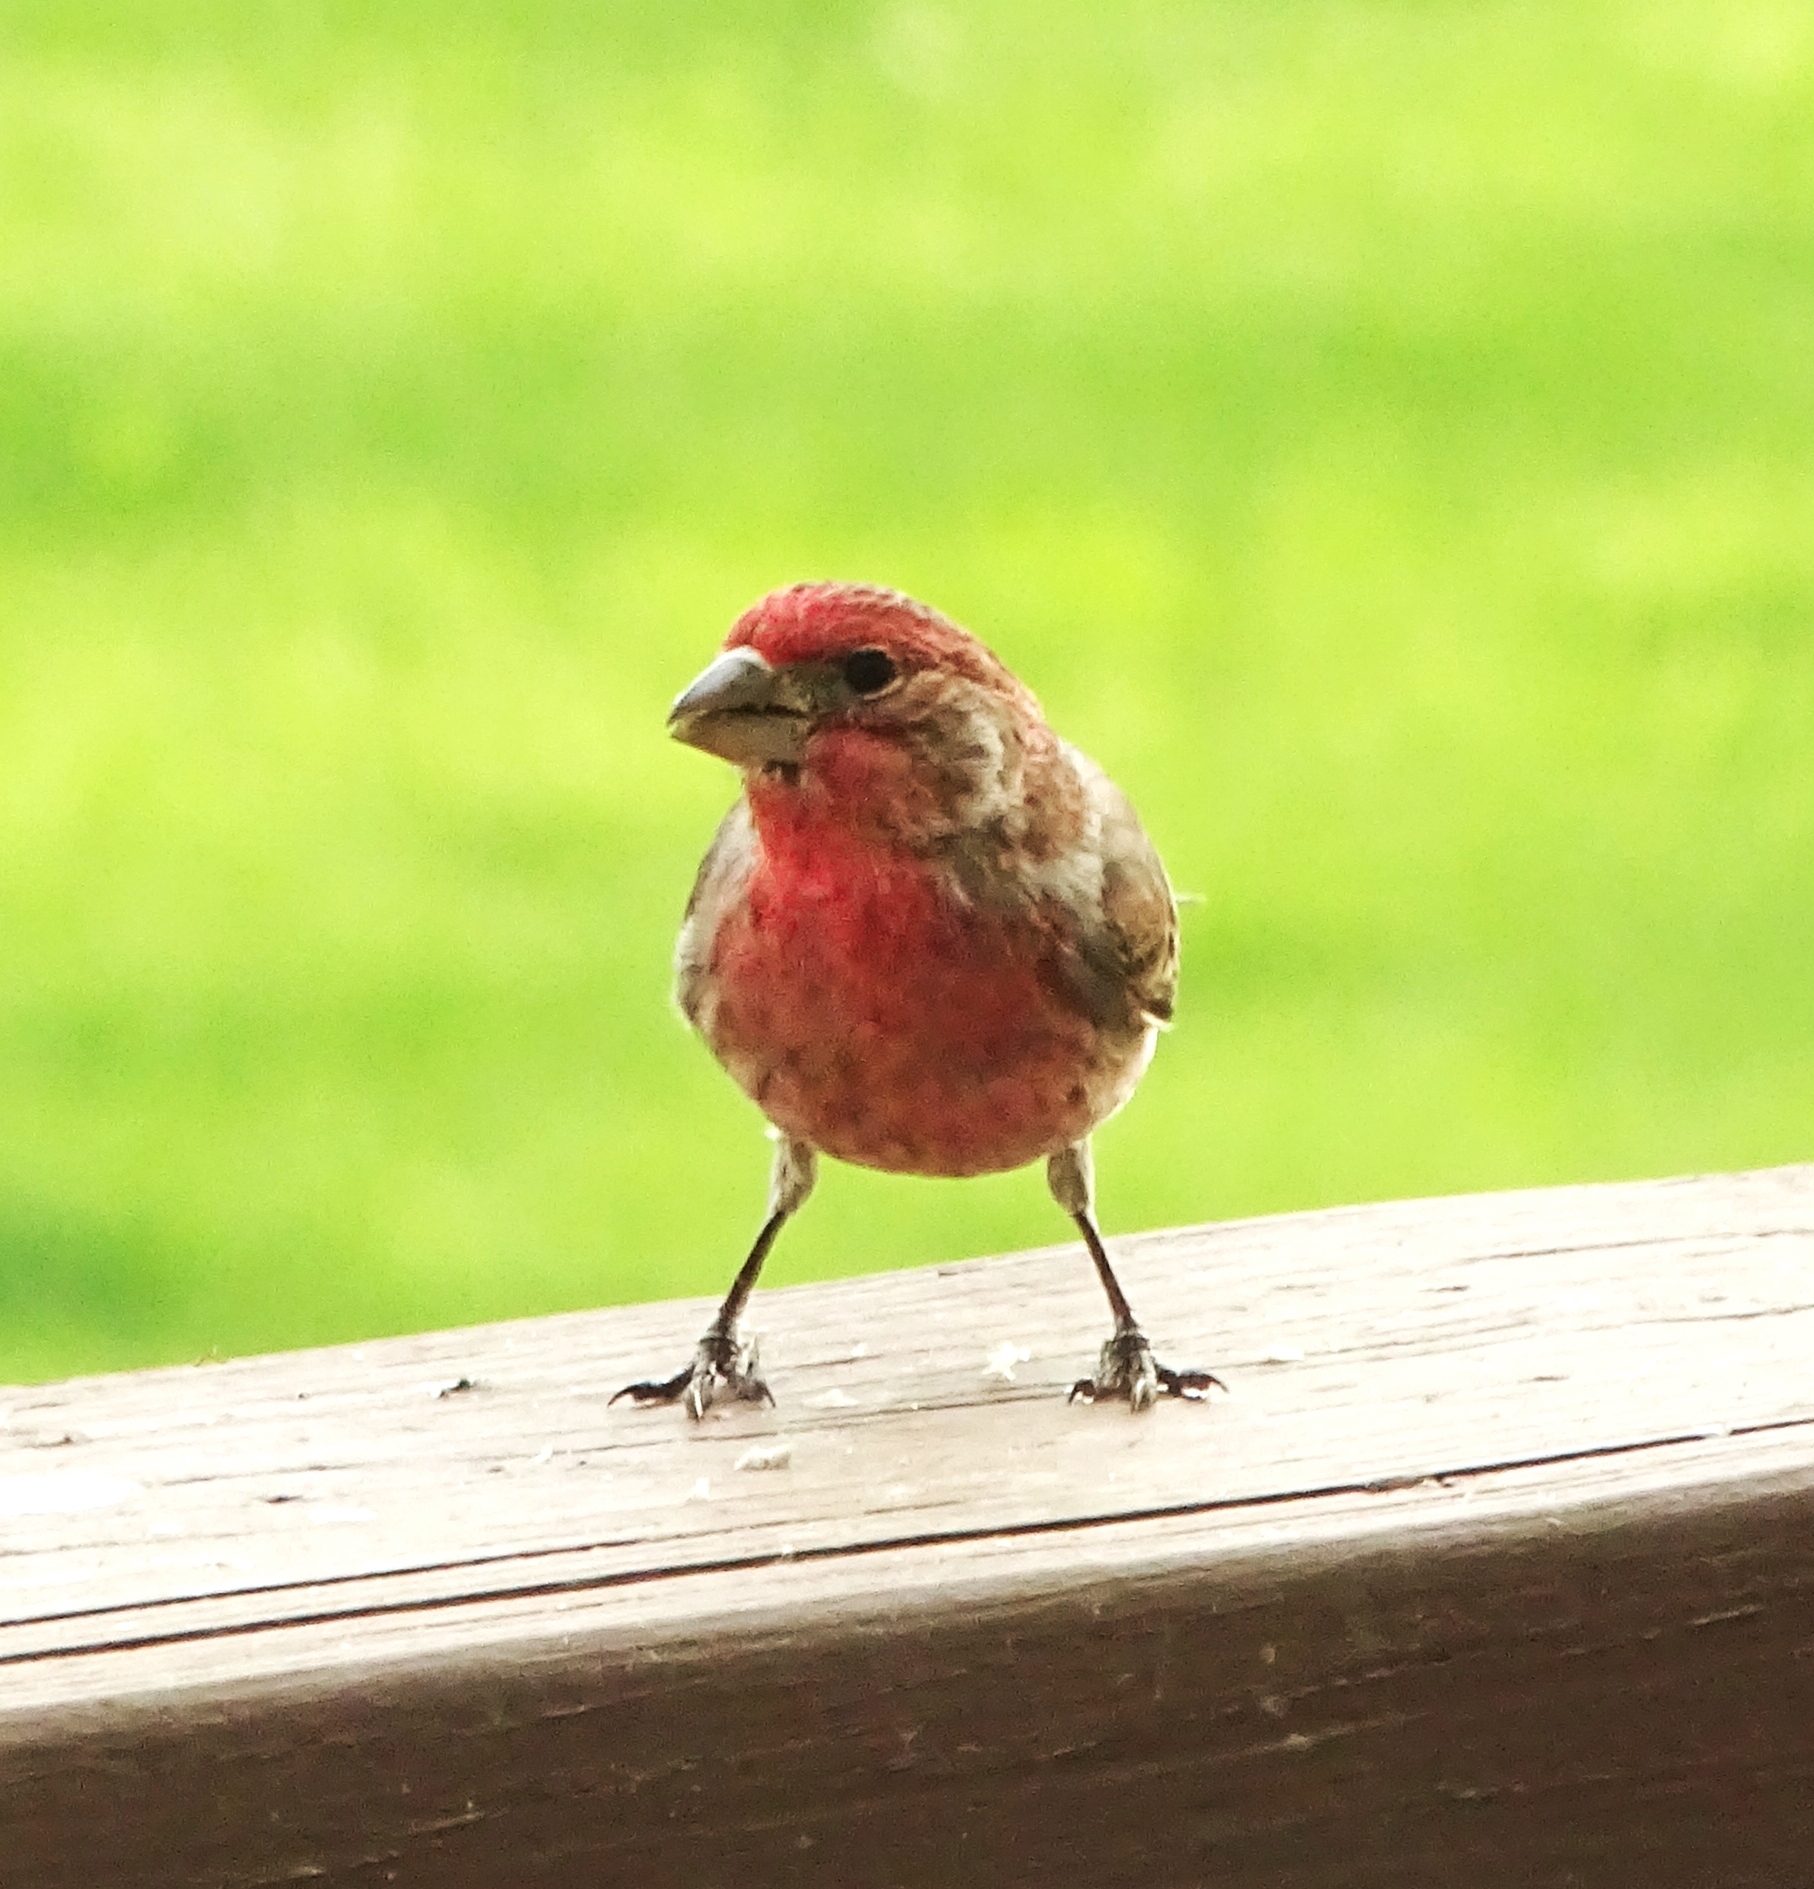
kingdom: Animalia
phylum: Chordata
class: Aves
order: Passeriformes
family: Fringillidae
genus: Haemorhous
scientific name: Haemorhous mexicanus
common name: House finch
